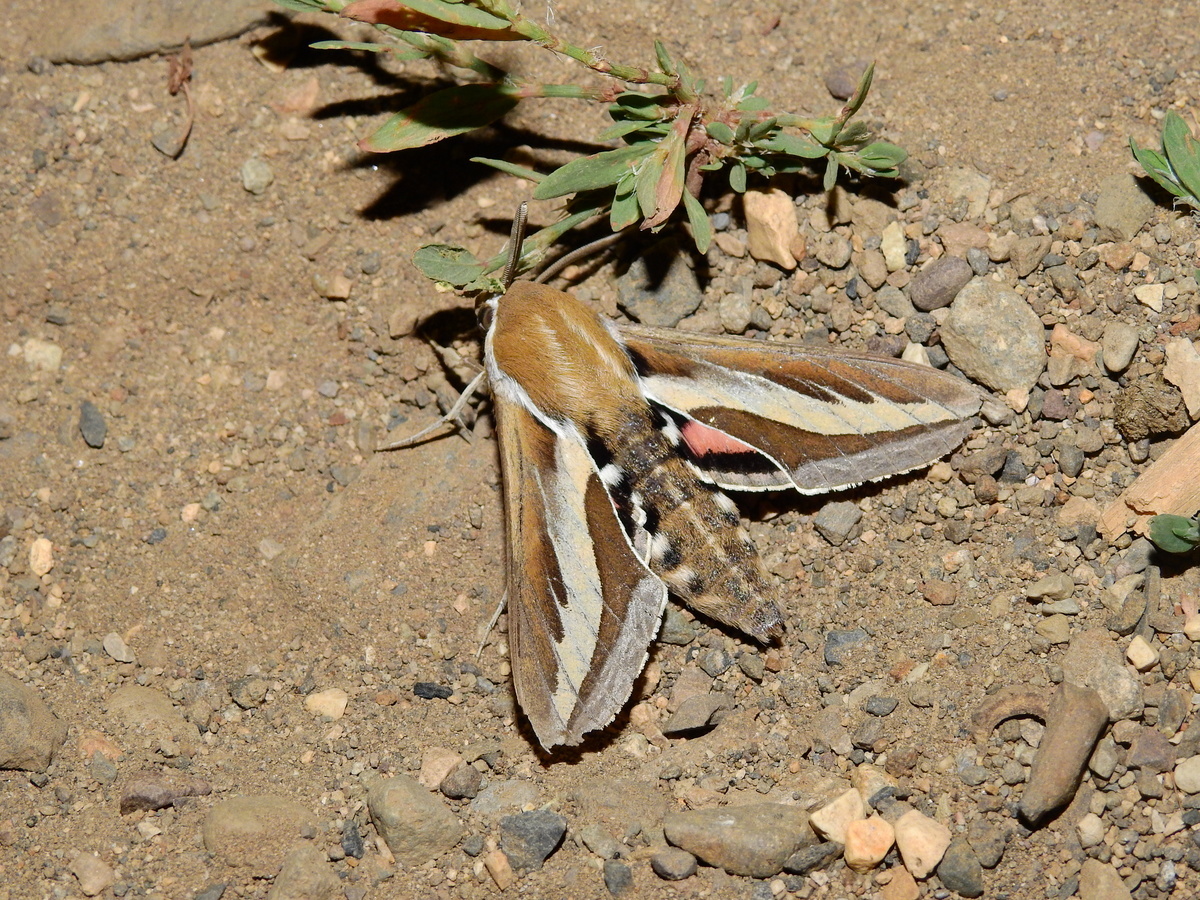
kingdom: Animalia
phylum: Arthropoda
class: Insecta
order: Lepidoptera
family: Sphingidae
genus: Hyles
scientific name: Hyles euphorbiarum
